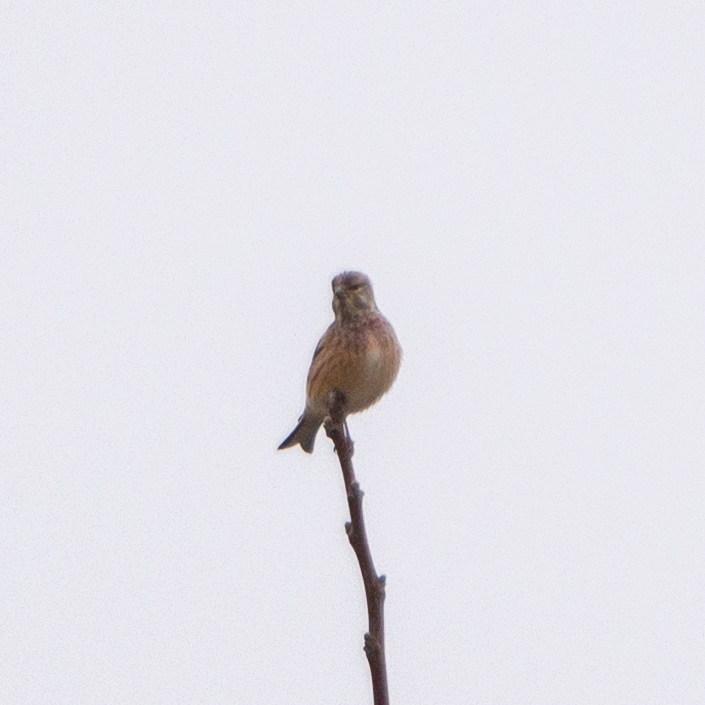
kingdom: Animalia
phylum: Chordata
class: Aves
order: Passeriformes
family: Fringillidae
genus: Linaria
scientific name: Linaria cannabina
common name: Common linnet
